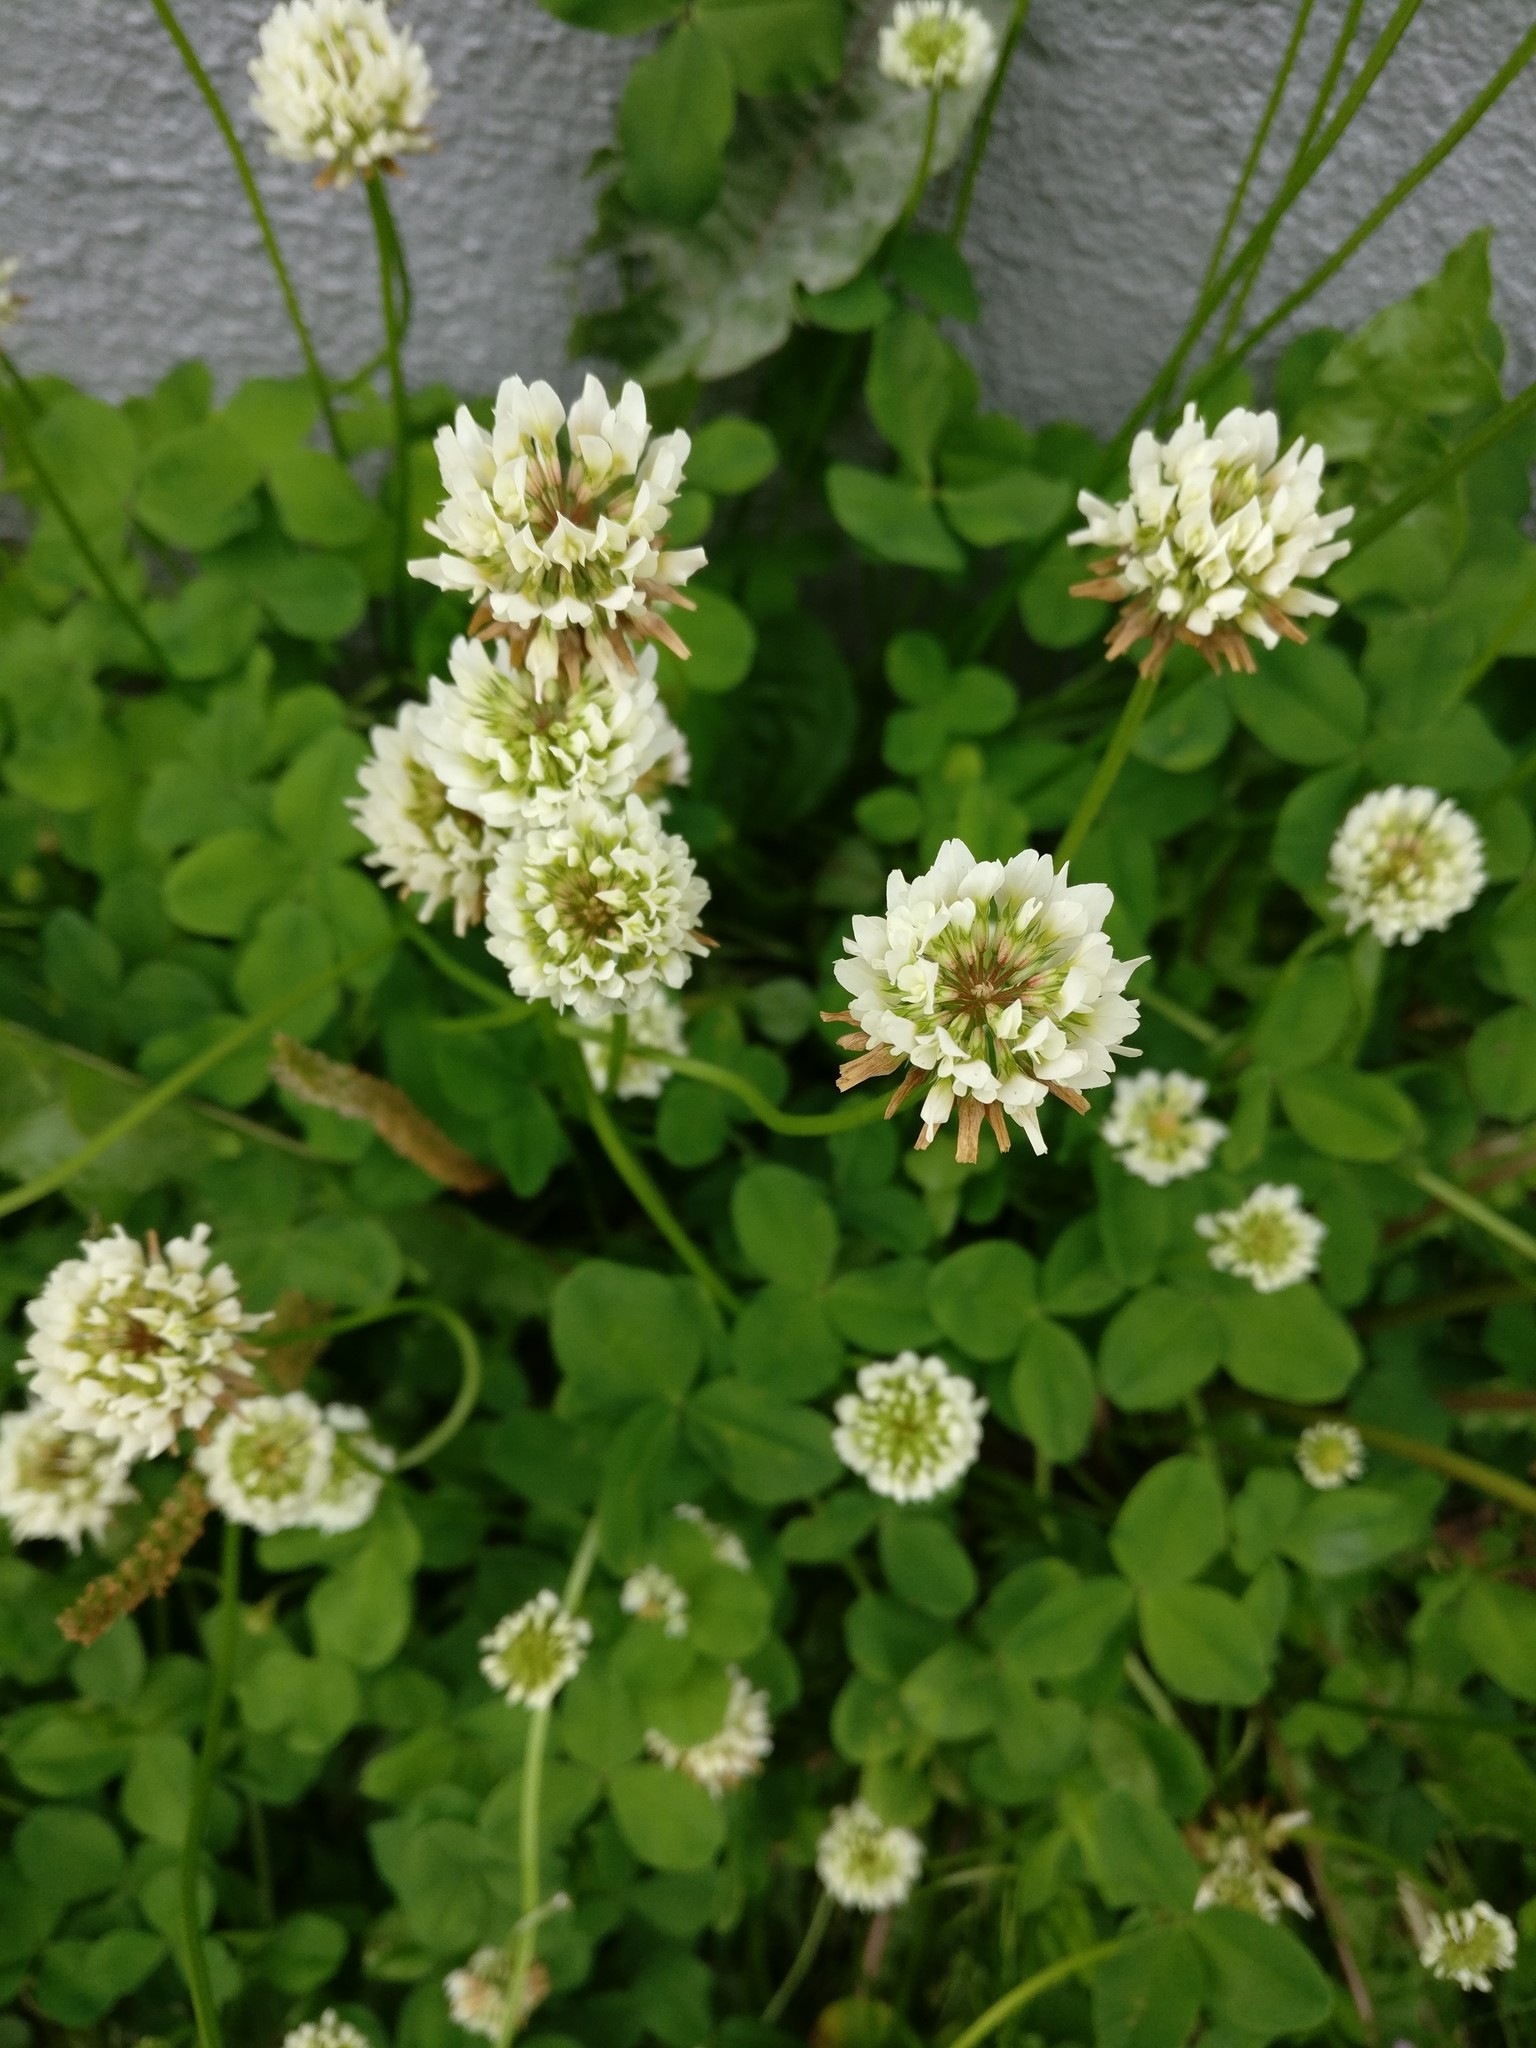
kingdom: Plantae
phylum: Tracheophyta
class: Magnoliopsida
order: Fabales
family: Fabaceae
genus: Trifolium
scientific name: Trifolium repens
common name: White clover
